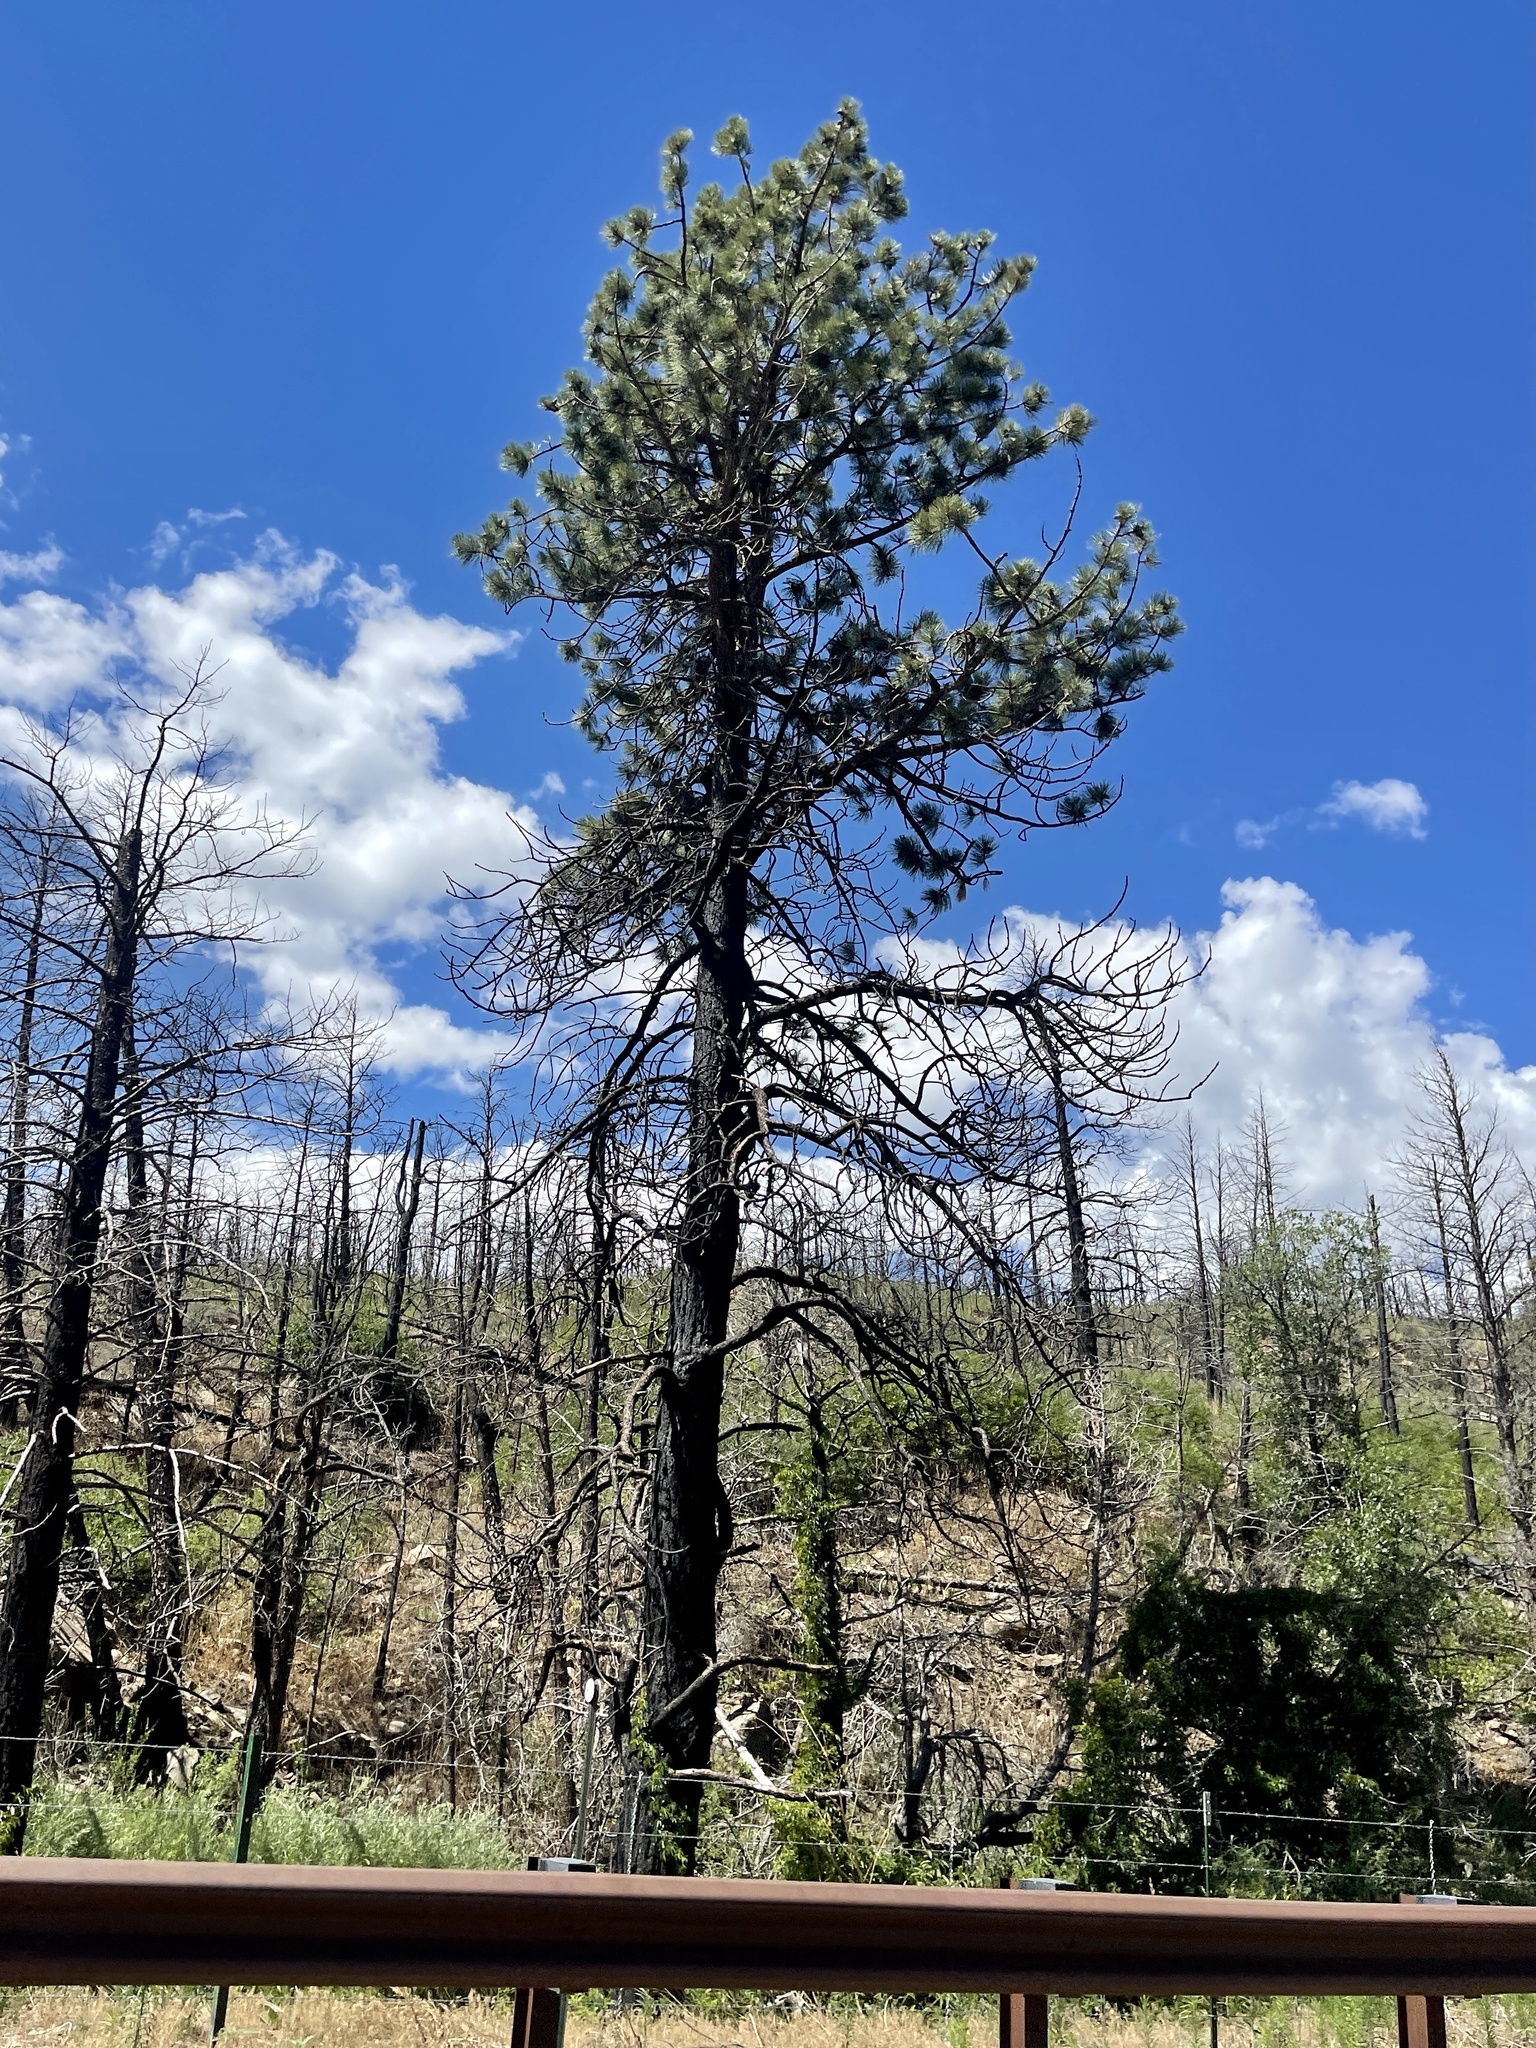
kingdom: Plantae
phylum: Tracheophyta
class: Pinopsida
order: Pinales
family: Pinaceae
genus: Pinus
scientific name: Pinus ponderosa
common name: Western yellow-pine
